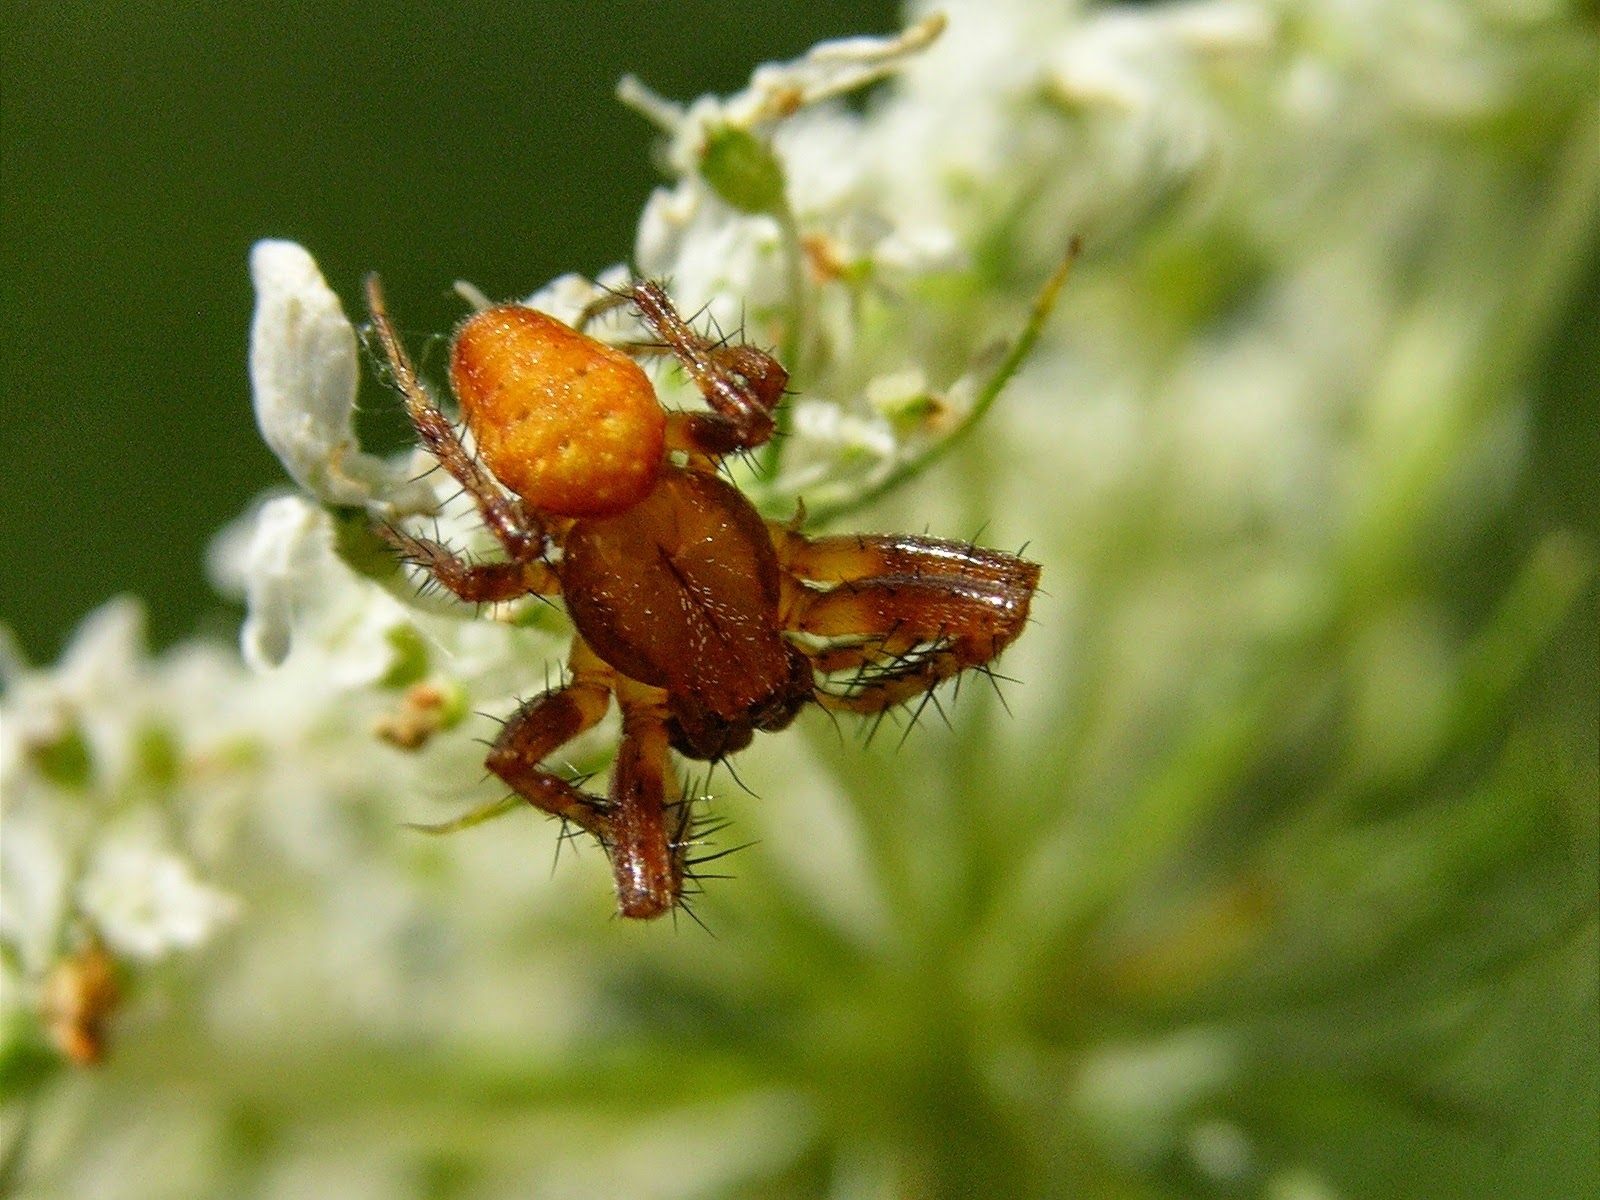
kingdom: Animalia
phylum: Arthropoda
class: Arachnida
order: Araneae
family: Araneidae
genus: Araneus
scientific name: Araneus alsine
